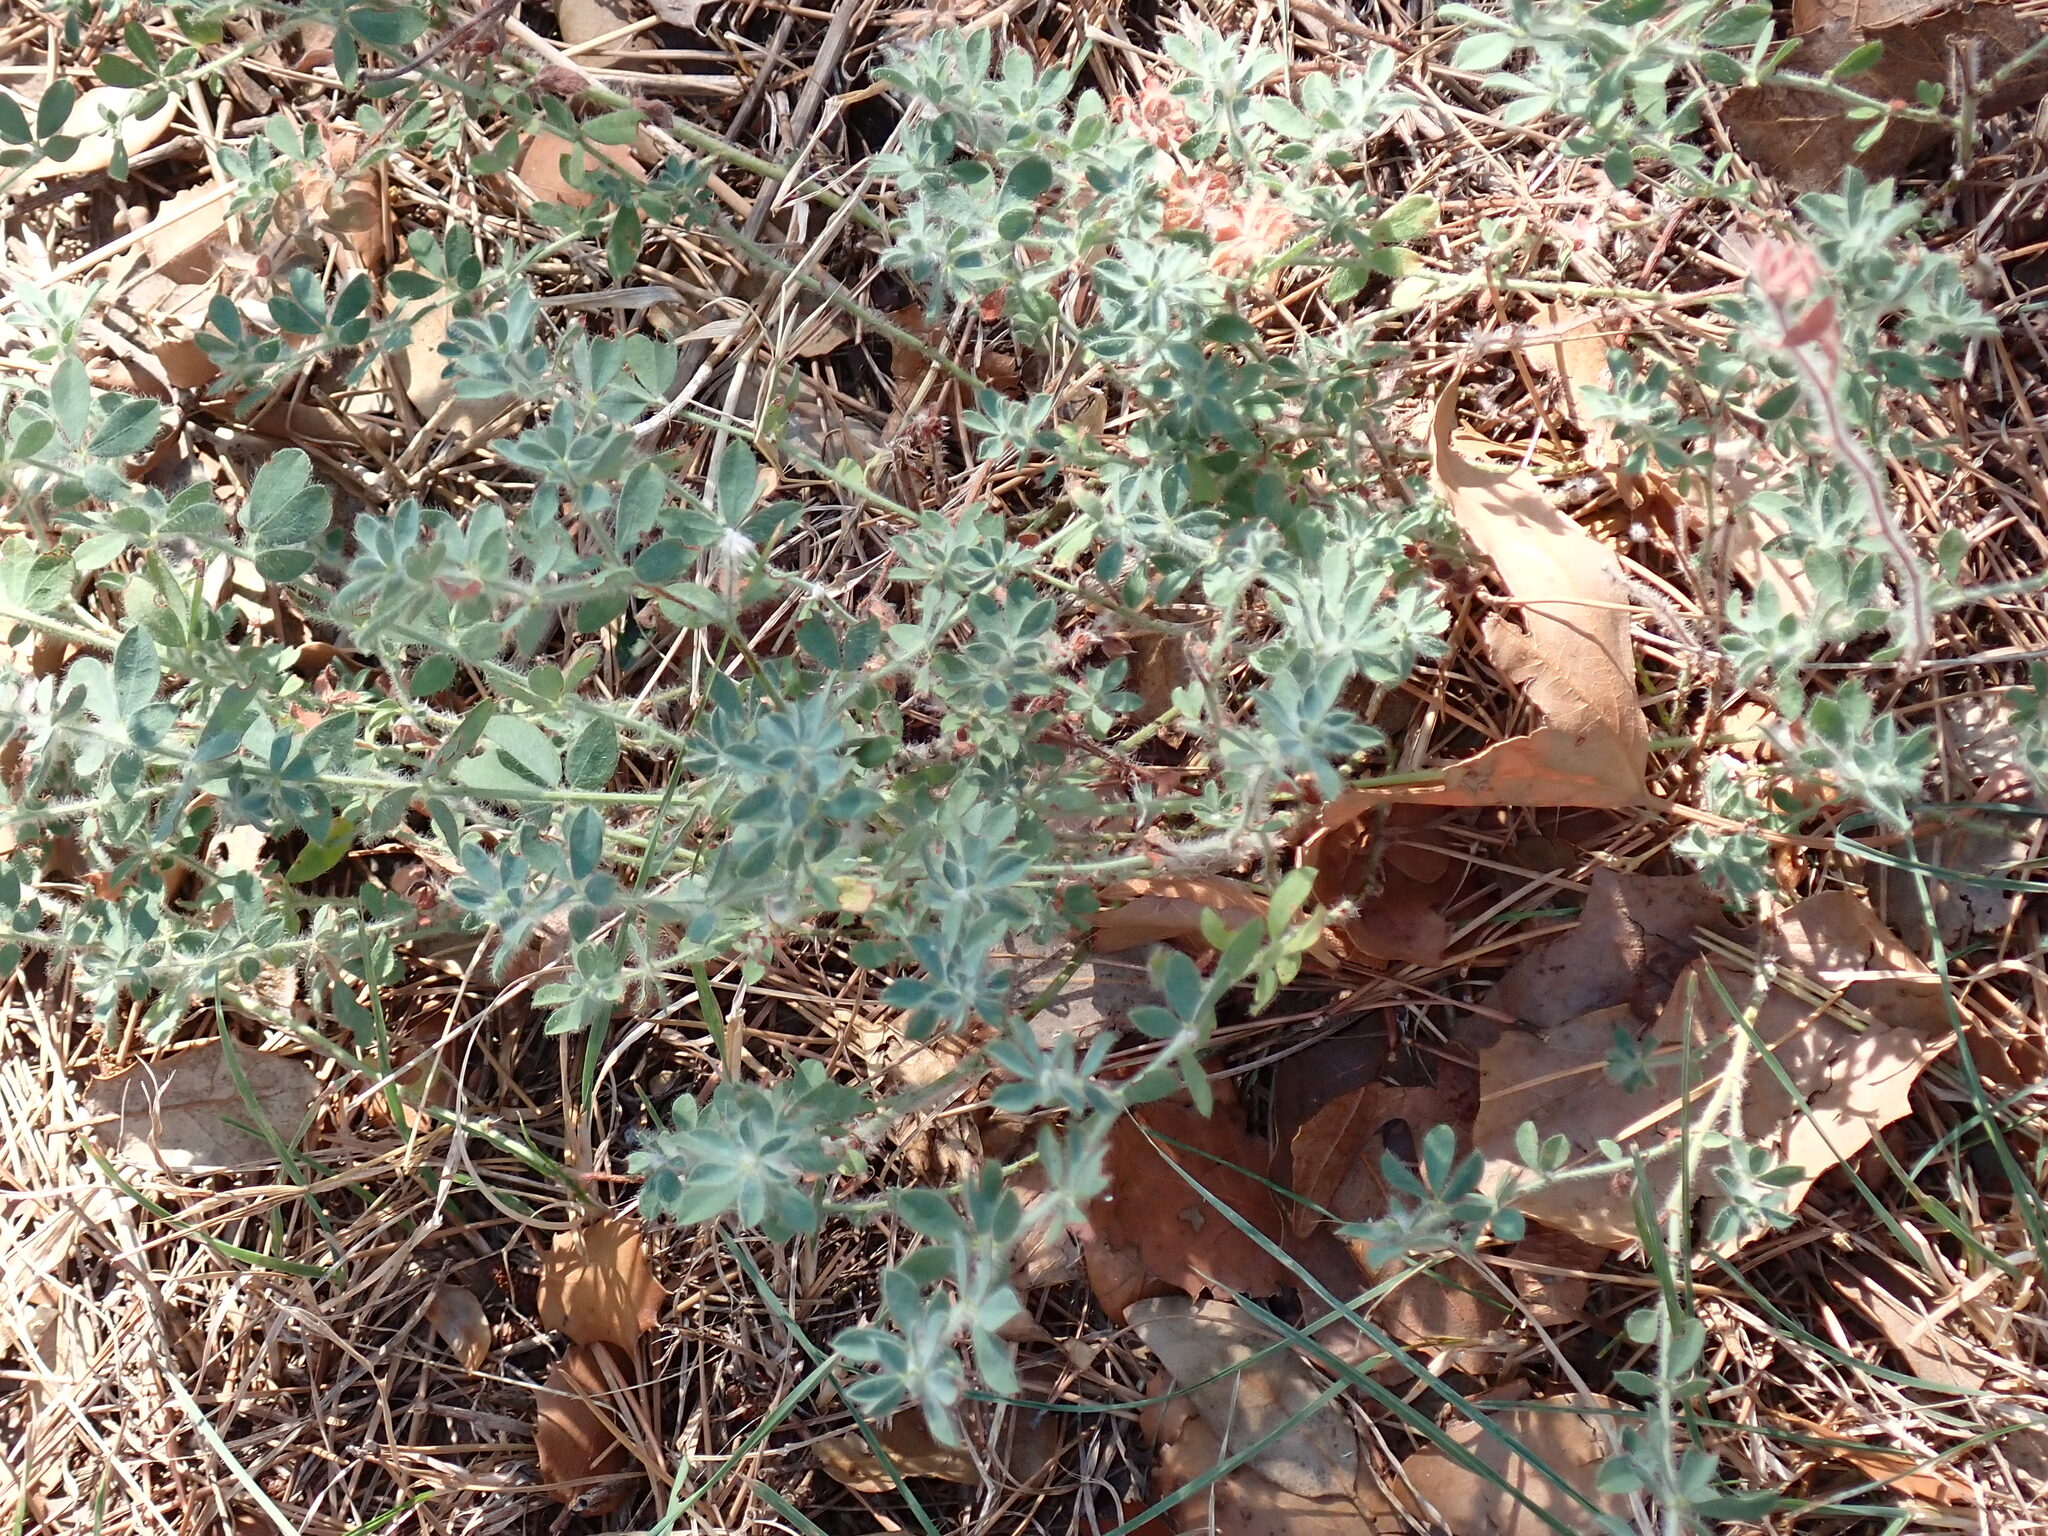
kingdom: Plantae
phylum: Tracheophyta
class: Magnoliopsida
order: Fabales
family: Fabaceae
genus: Lotus
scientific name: Lotus hirsutus
